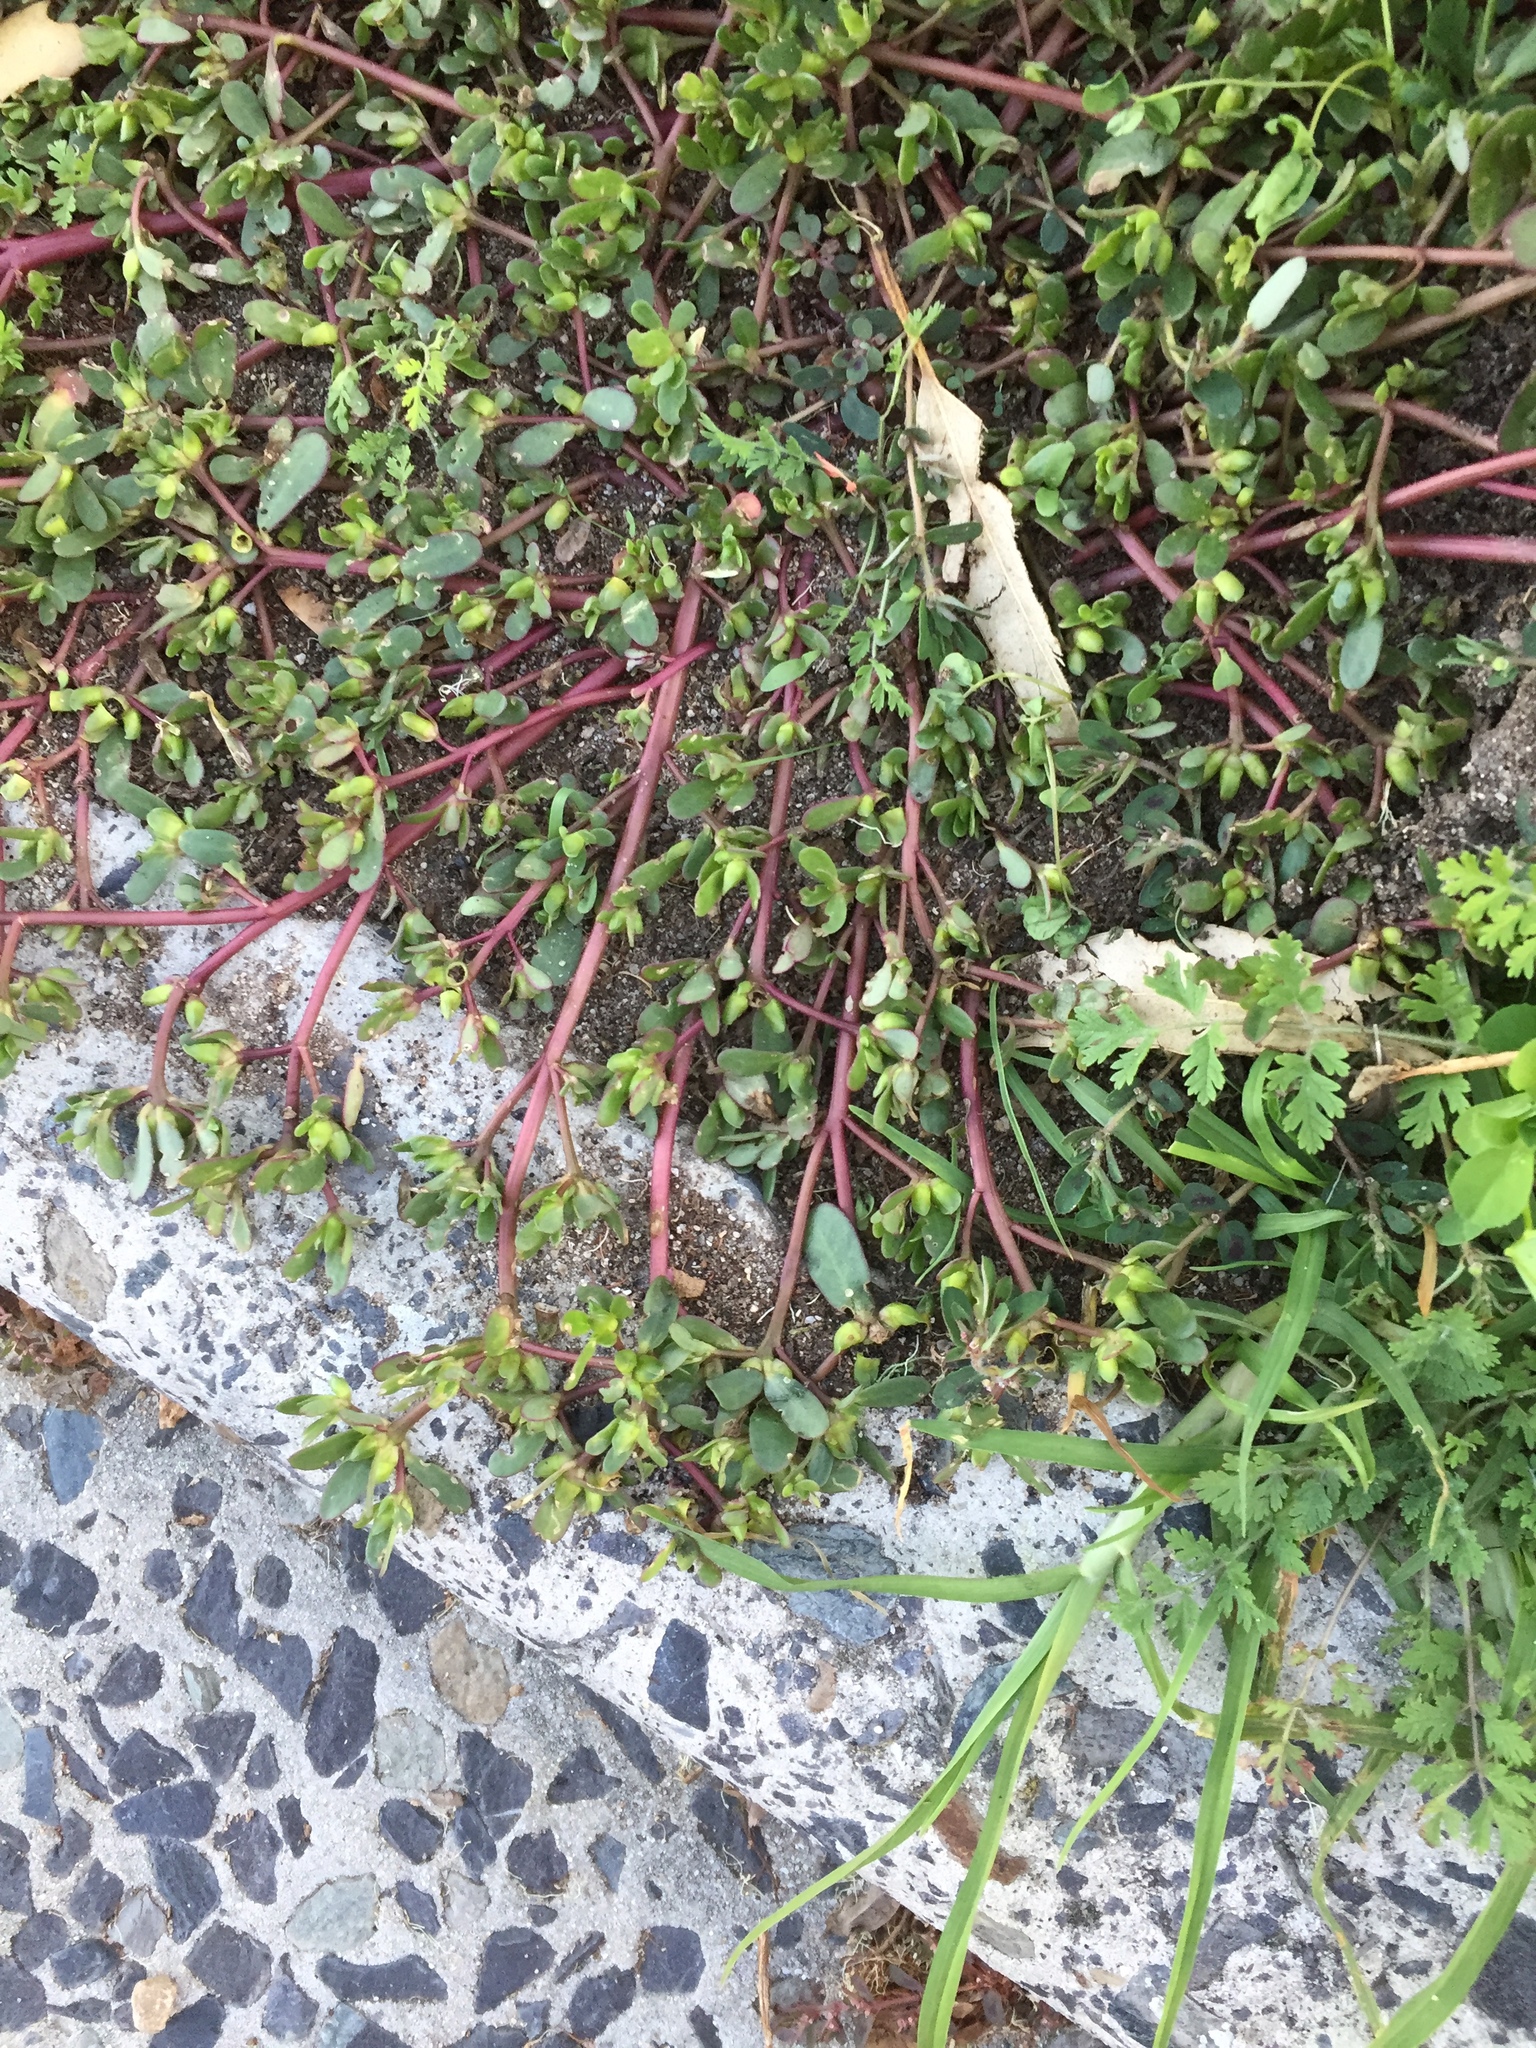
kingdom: Plantae
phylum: Tracheophyta
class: Magnoliopsida
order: Caryophyllales
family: Portulacaceae
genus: Portulaca
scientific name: Portulaca oleracea
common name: Common purslane
